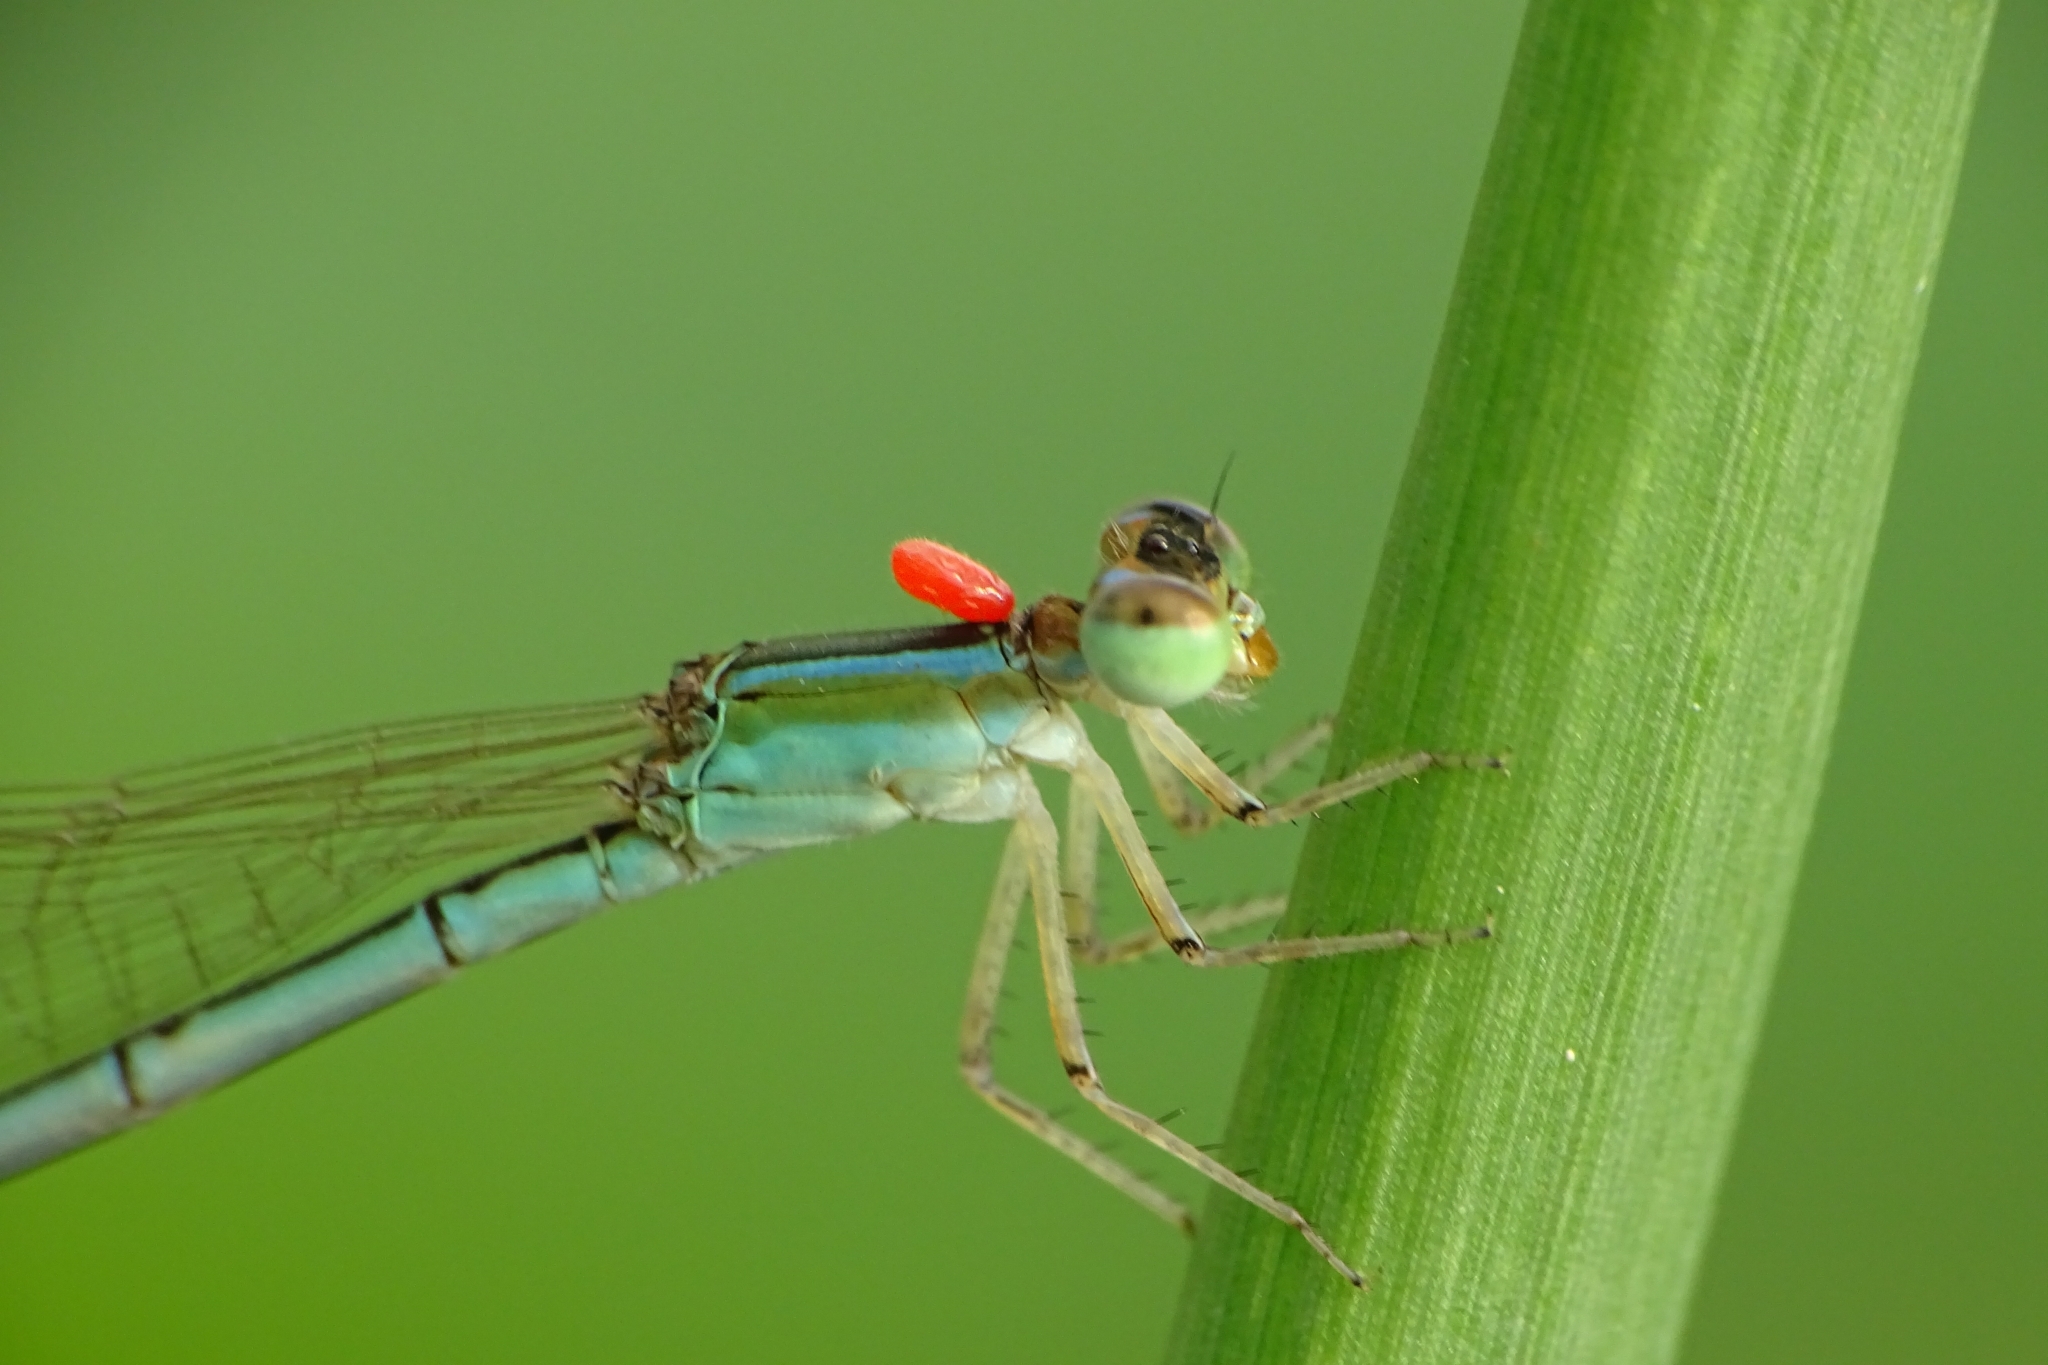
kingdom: Animalia
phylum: Arthropoda
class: Insecta
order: Odonata
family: Coenagrionidae
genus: Agriocnemis
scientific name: Agriocnemis pygmaea
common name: Pygmy wisp
